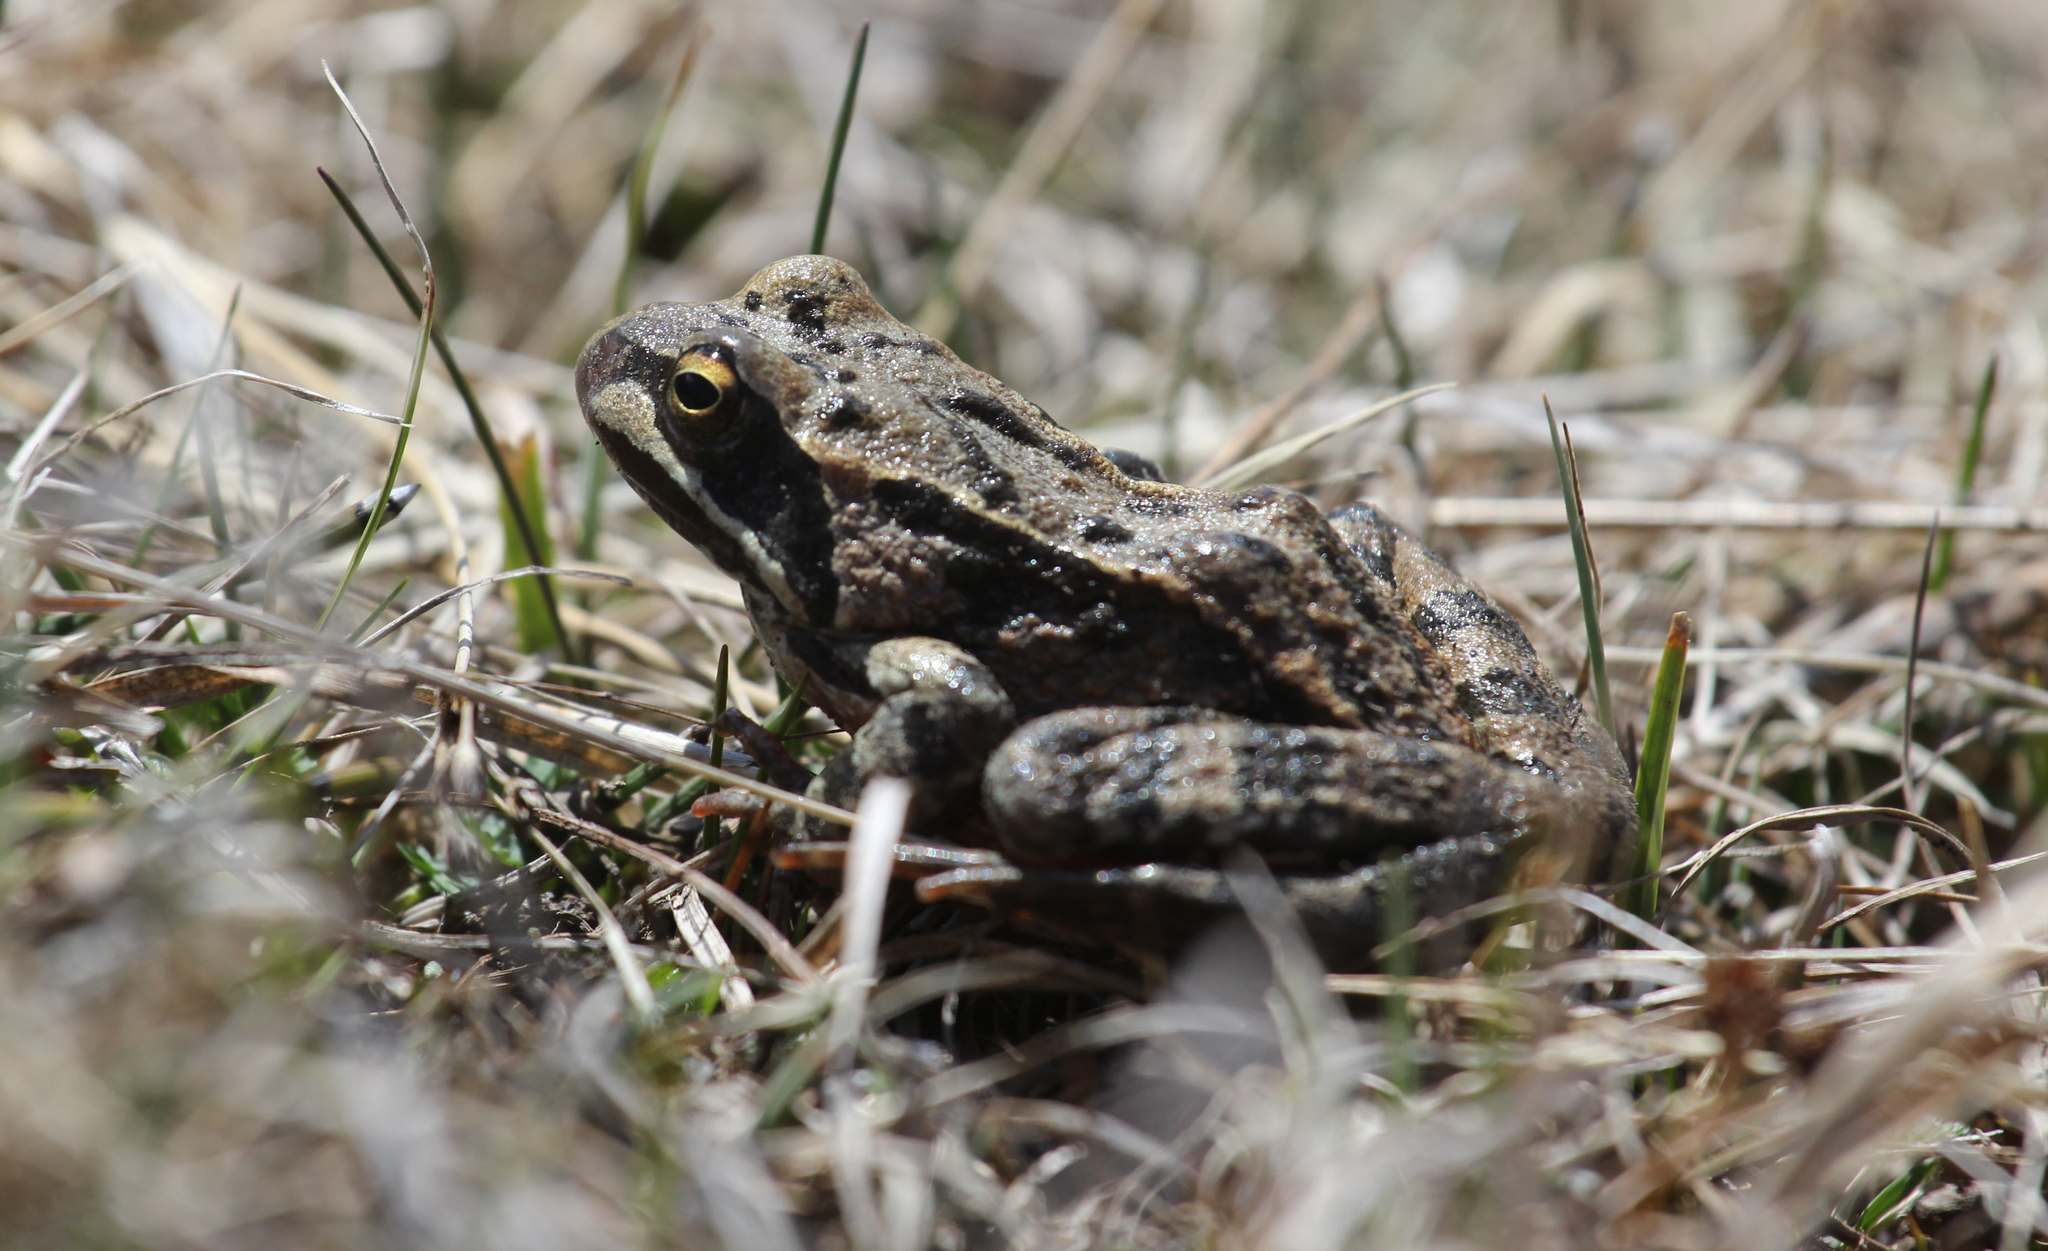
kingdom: Animalia
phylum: Chordata
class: Amphibia
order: Anura
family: Ranidae
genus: Rana
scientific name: Rana macrocnemis
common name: Banded frog
